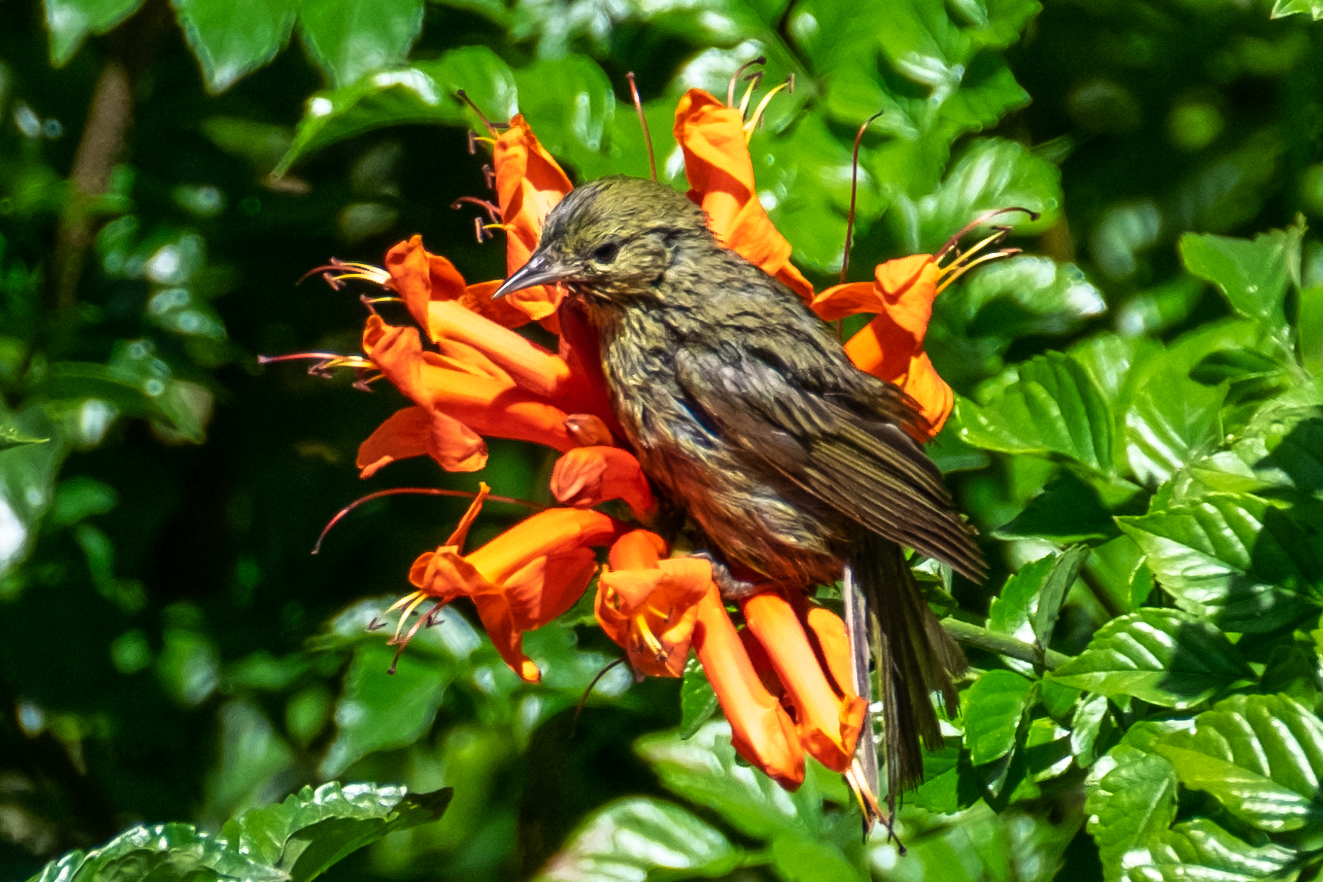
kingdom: Animalia
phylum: Chordata
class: Aves
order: Passeriformes
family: Icteridae
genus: Icterus
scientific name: Icterus
